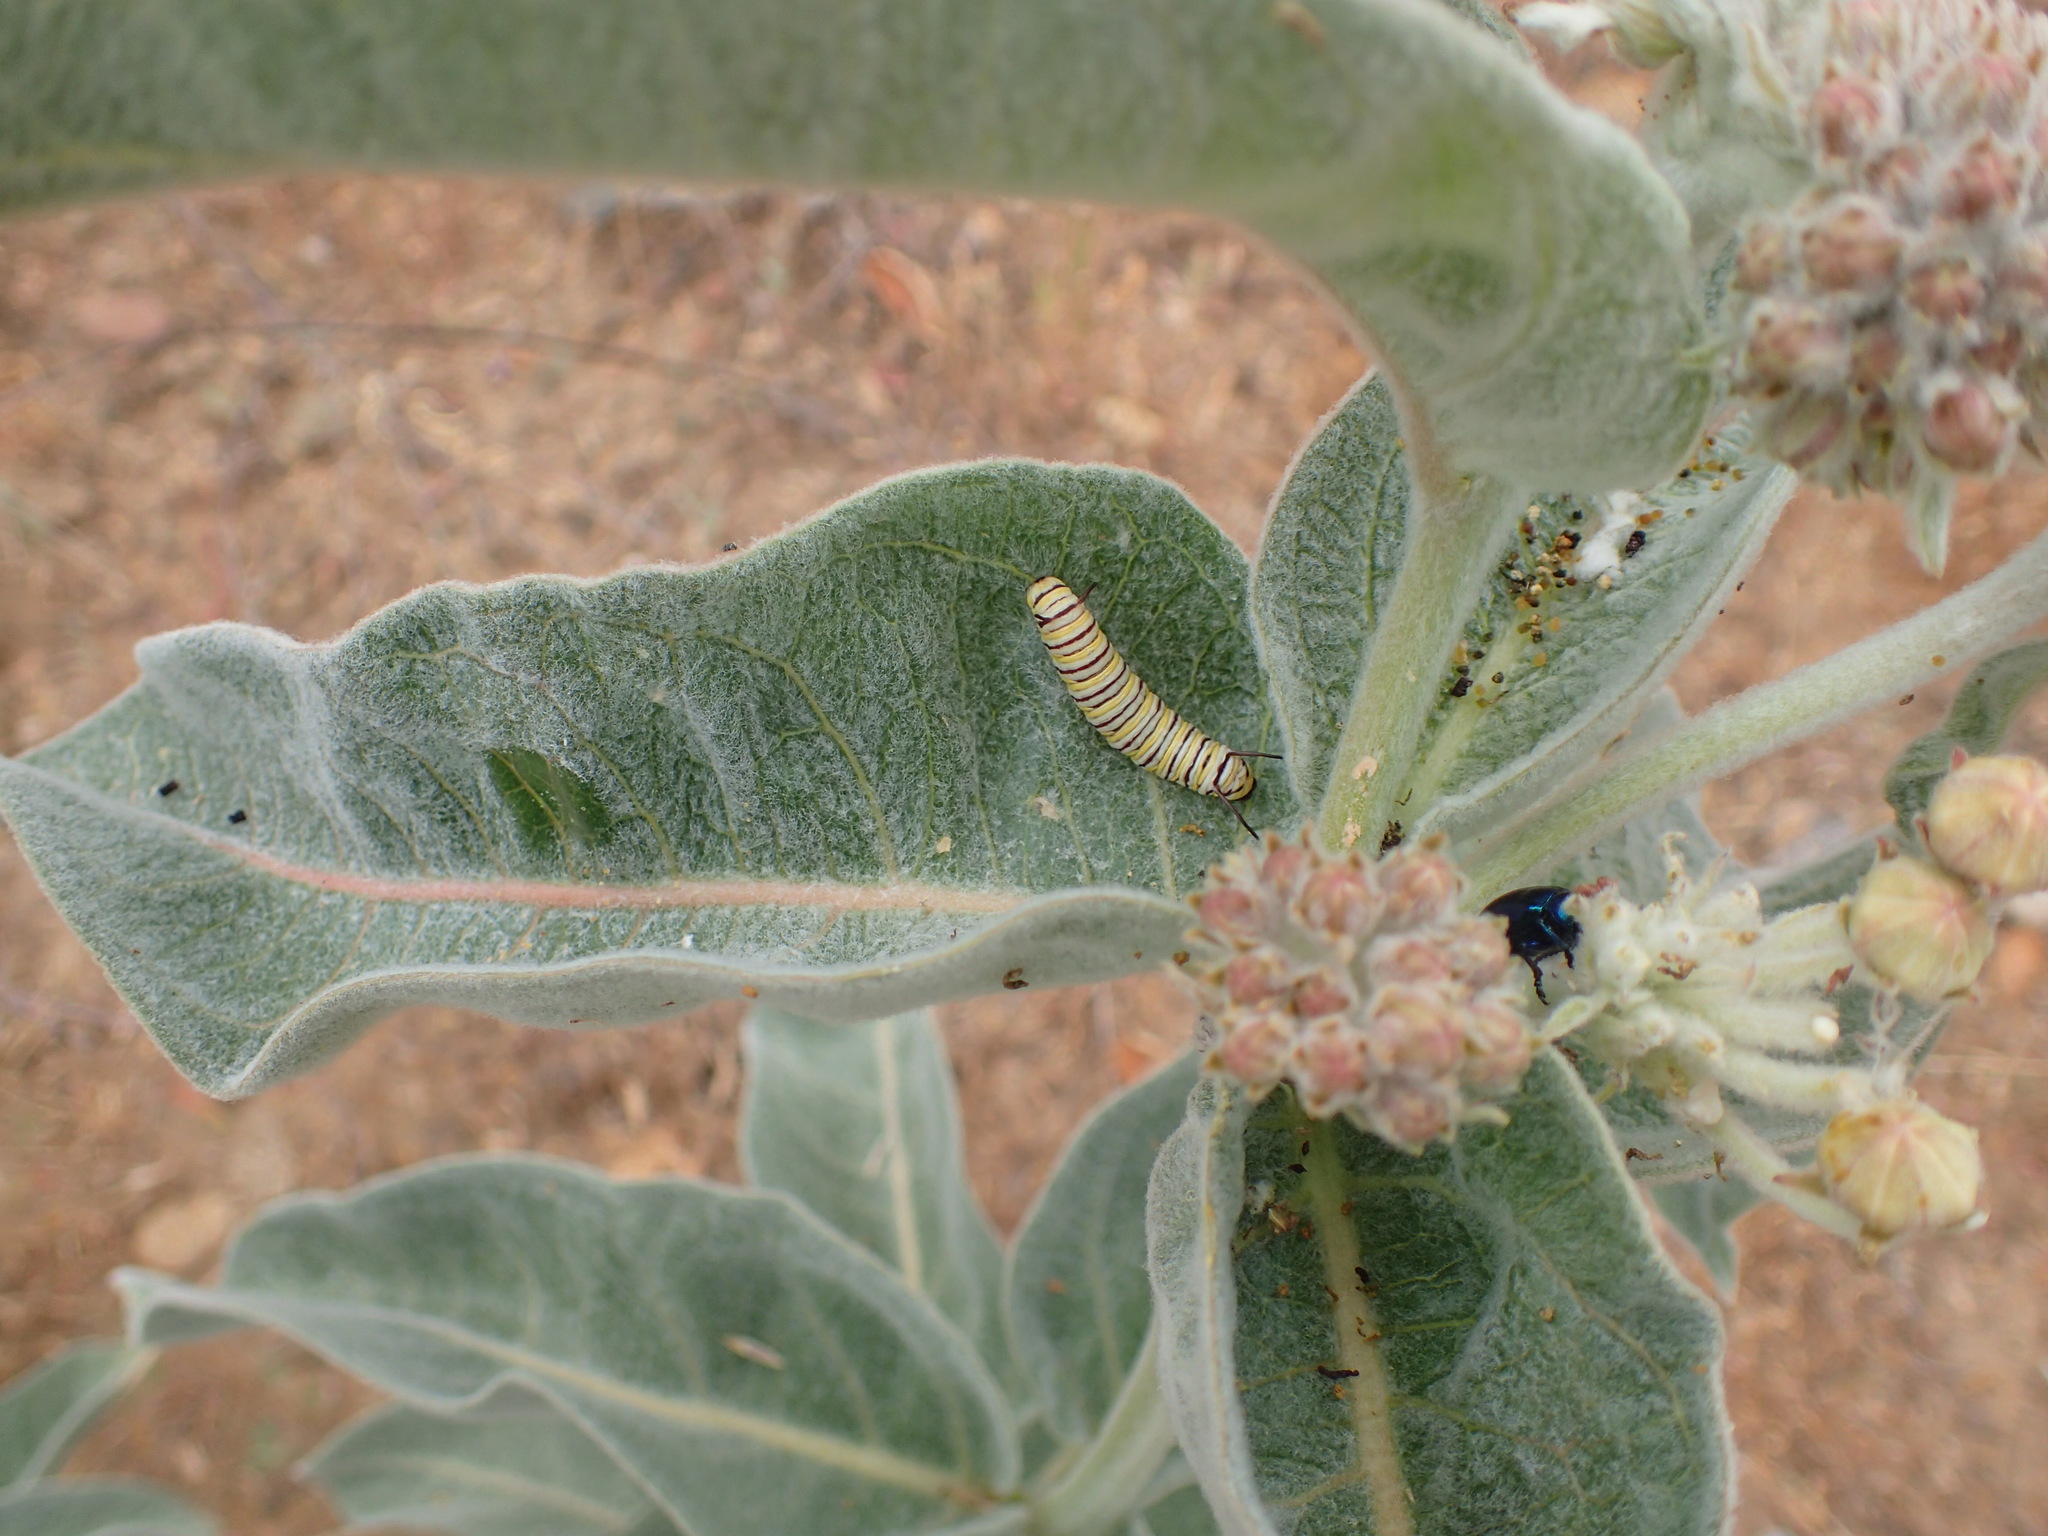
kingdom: Animalia
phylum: Arthropoda
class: Insecta
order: Lepidoptera
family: Nymphalidae
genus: Danaus
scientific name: Danaus plexippus
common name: Monarch
